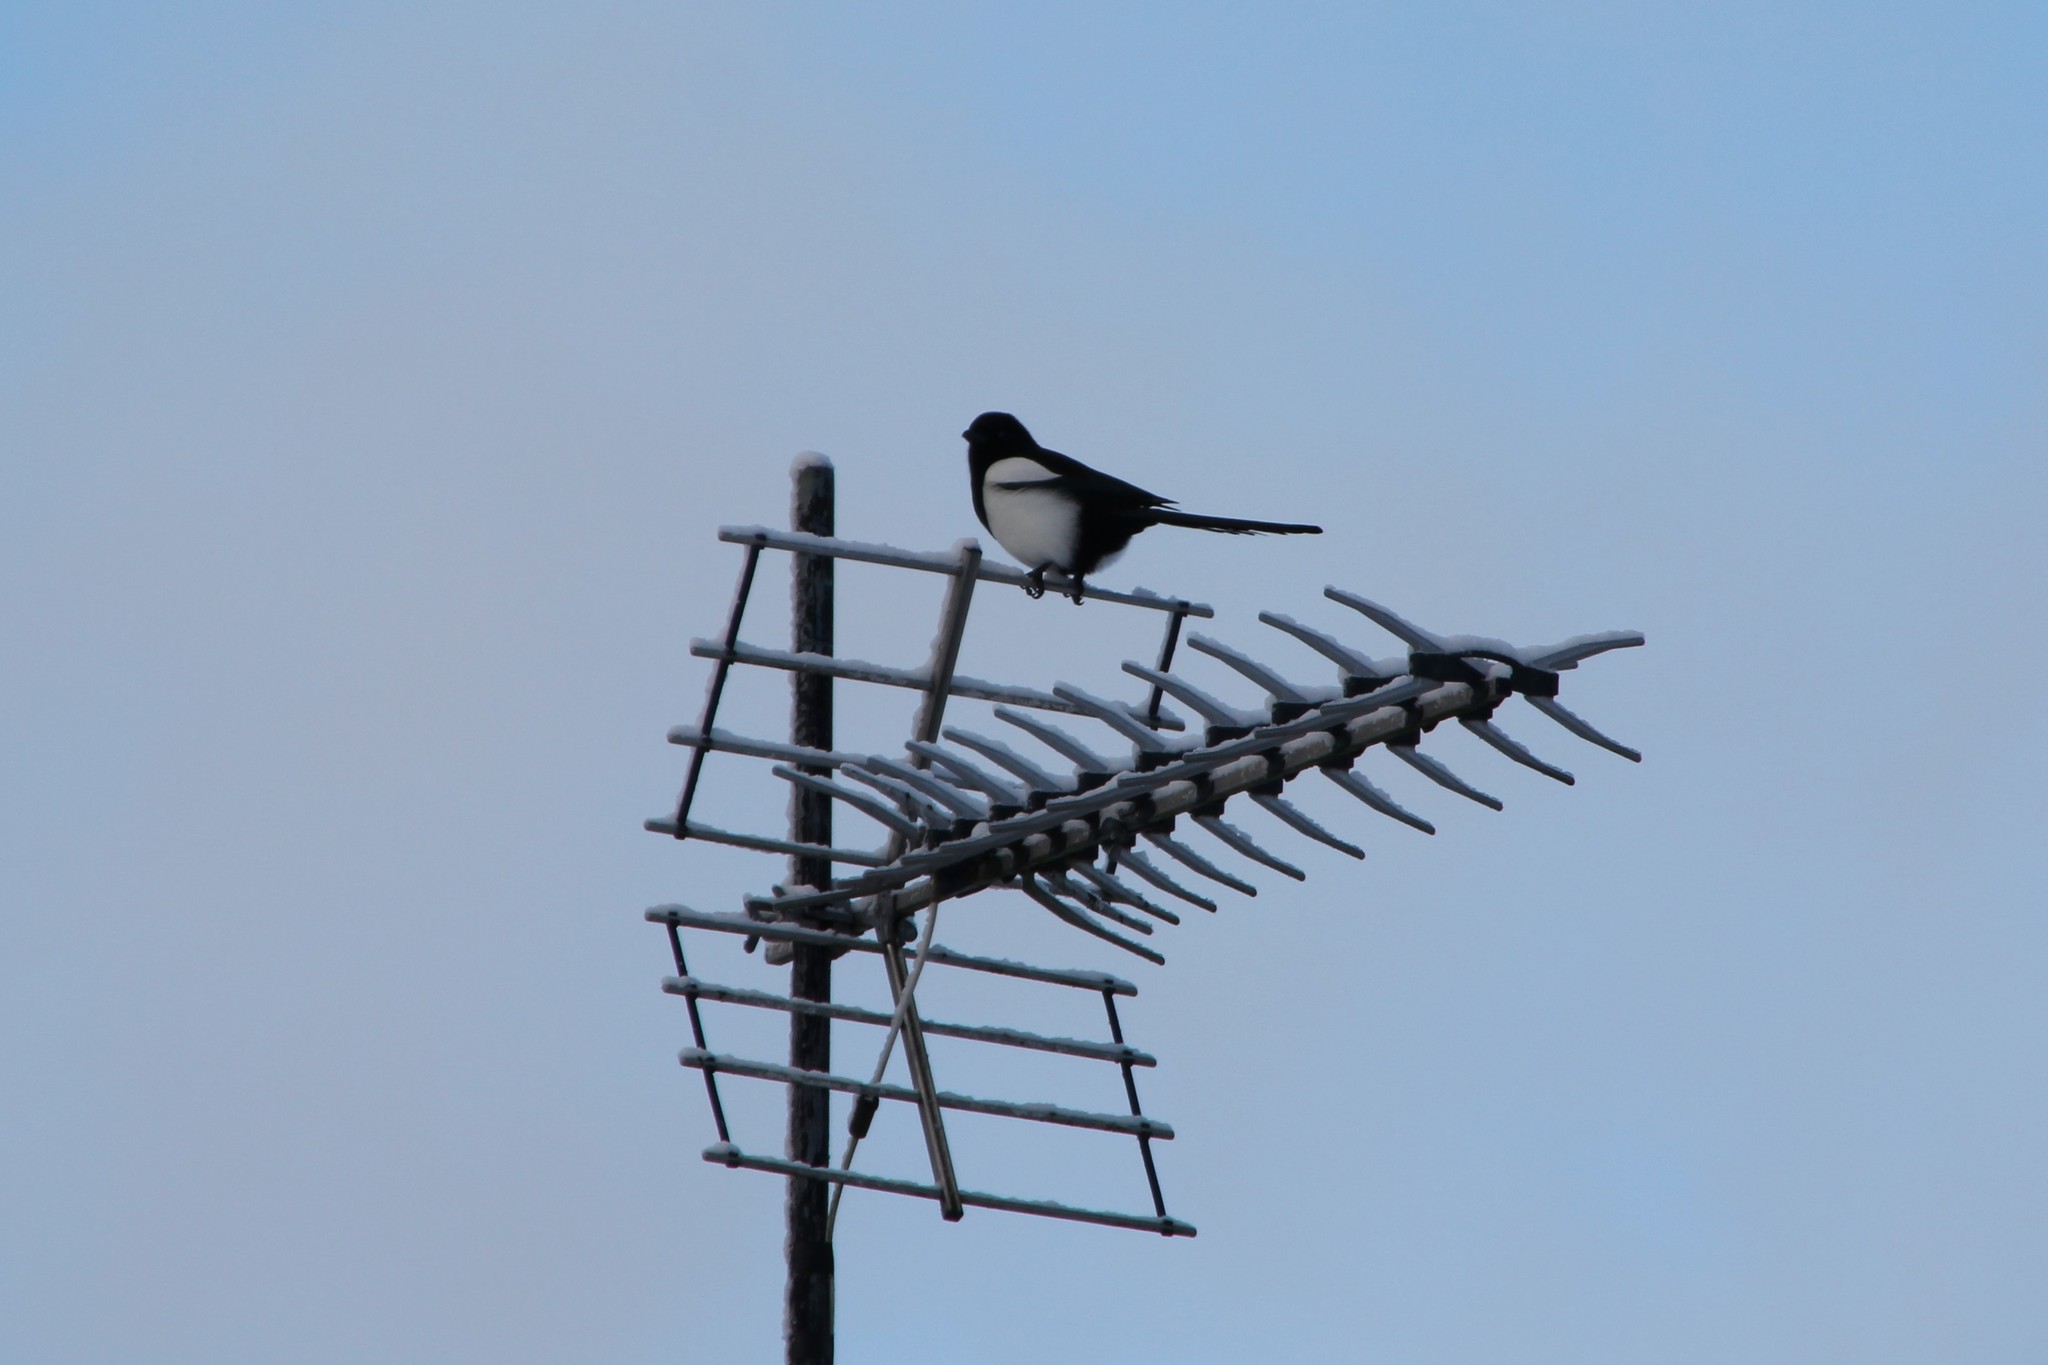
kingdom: Animalia
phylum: Chordata
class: Aves
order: Passeriformes
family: Corvidae
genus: Pica
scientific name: Pica pica
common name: Eurasian magpie
